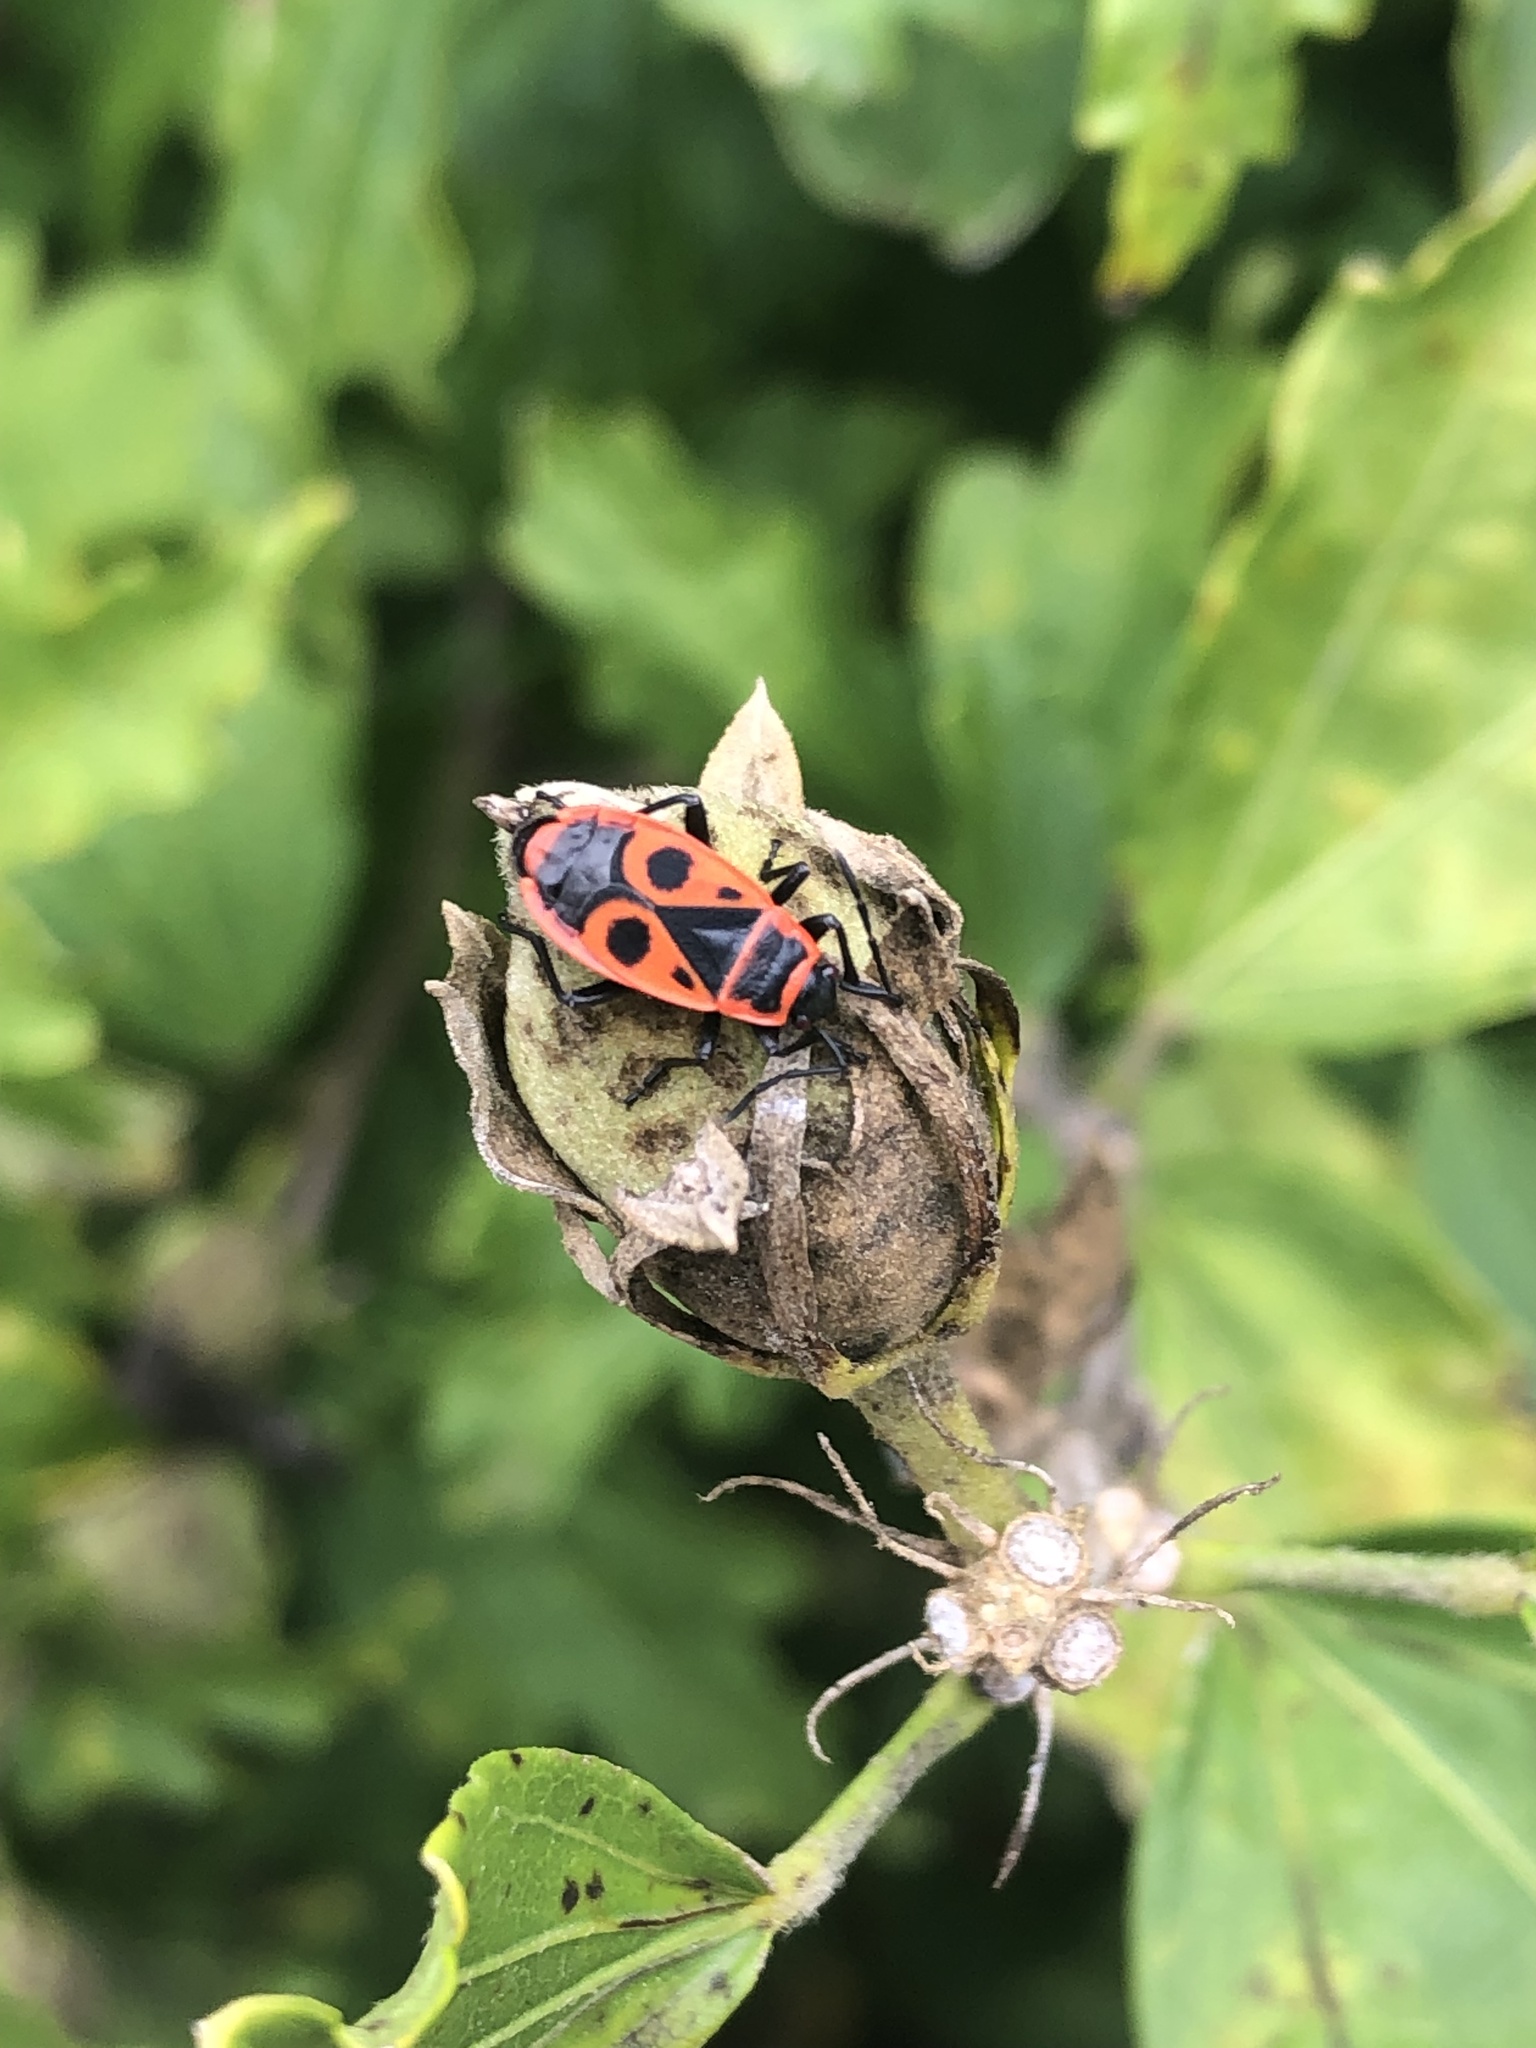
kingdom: Animalia
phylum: Arthropoda
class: Insecta
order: Hemiptera
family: Pyrrhocoridae
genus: Pyrrhocoris
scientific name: Pyrrhocoris apterus
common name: Firebug
